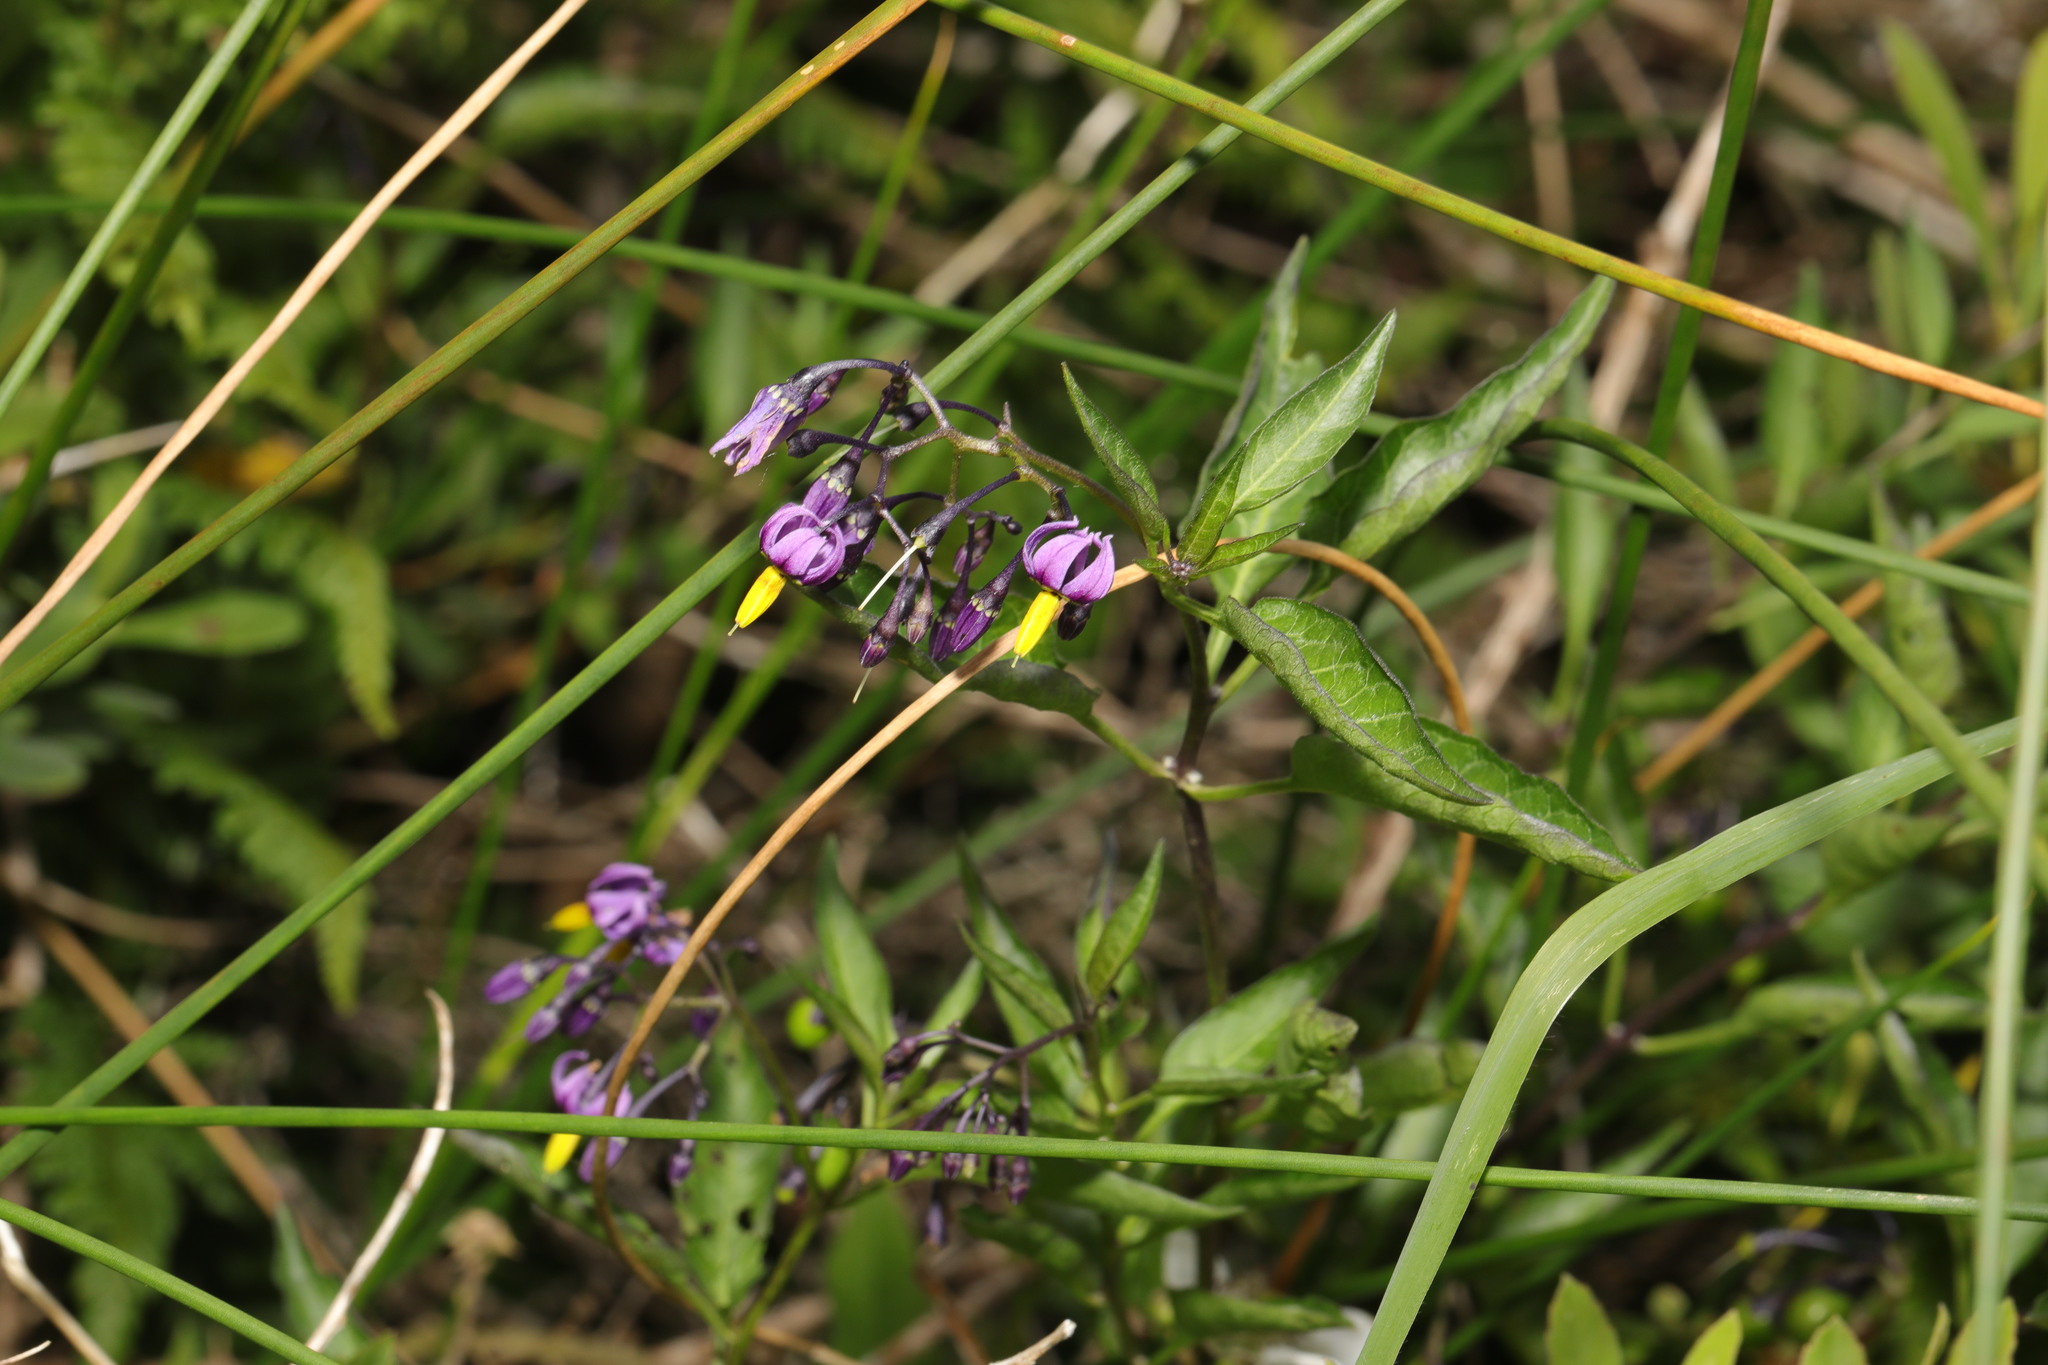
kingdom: Plantae
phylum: Tracheophyta
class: Magnoliopsida
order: Solanales
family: Solanaceae
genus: Solanum
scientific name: Solanum dulcamara
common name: Climbing nightshade
